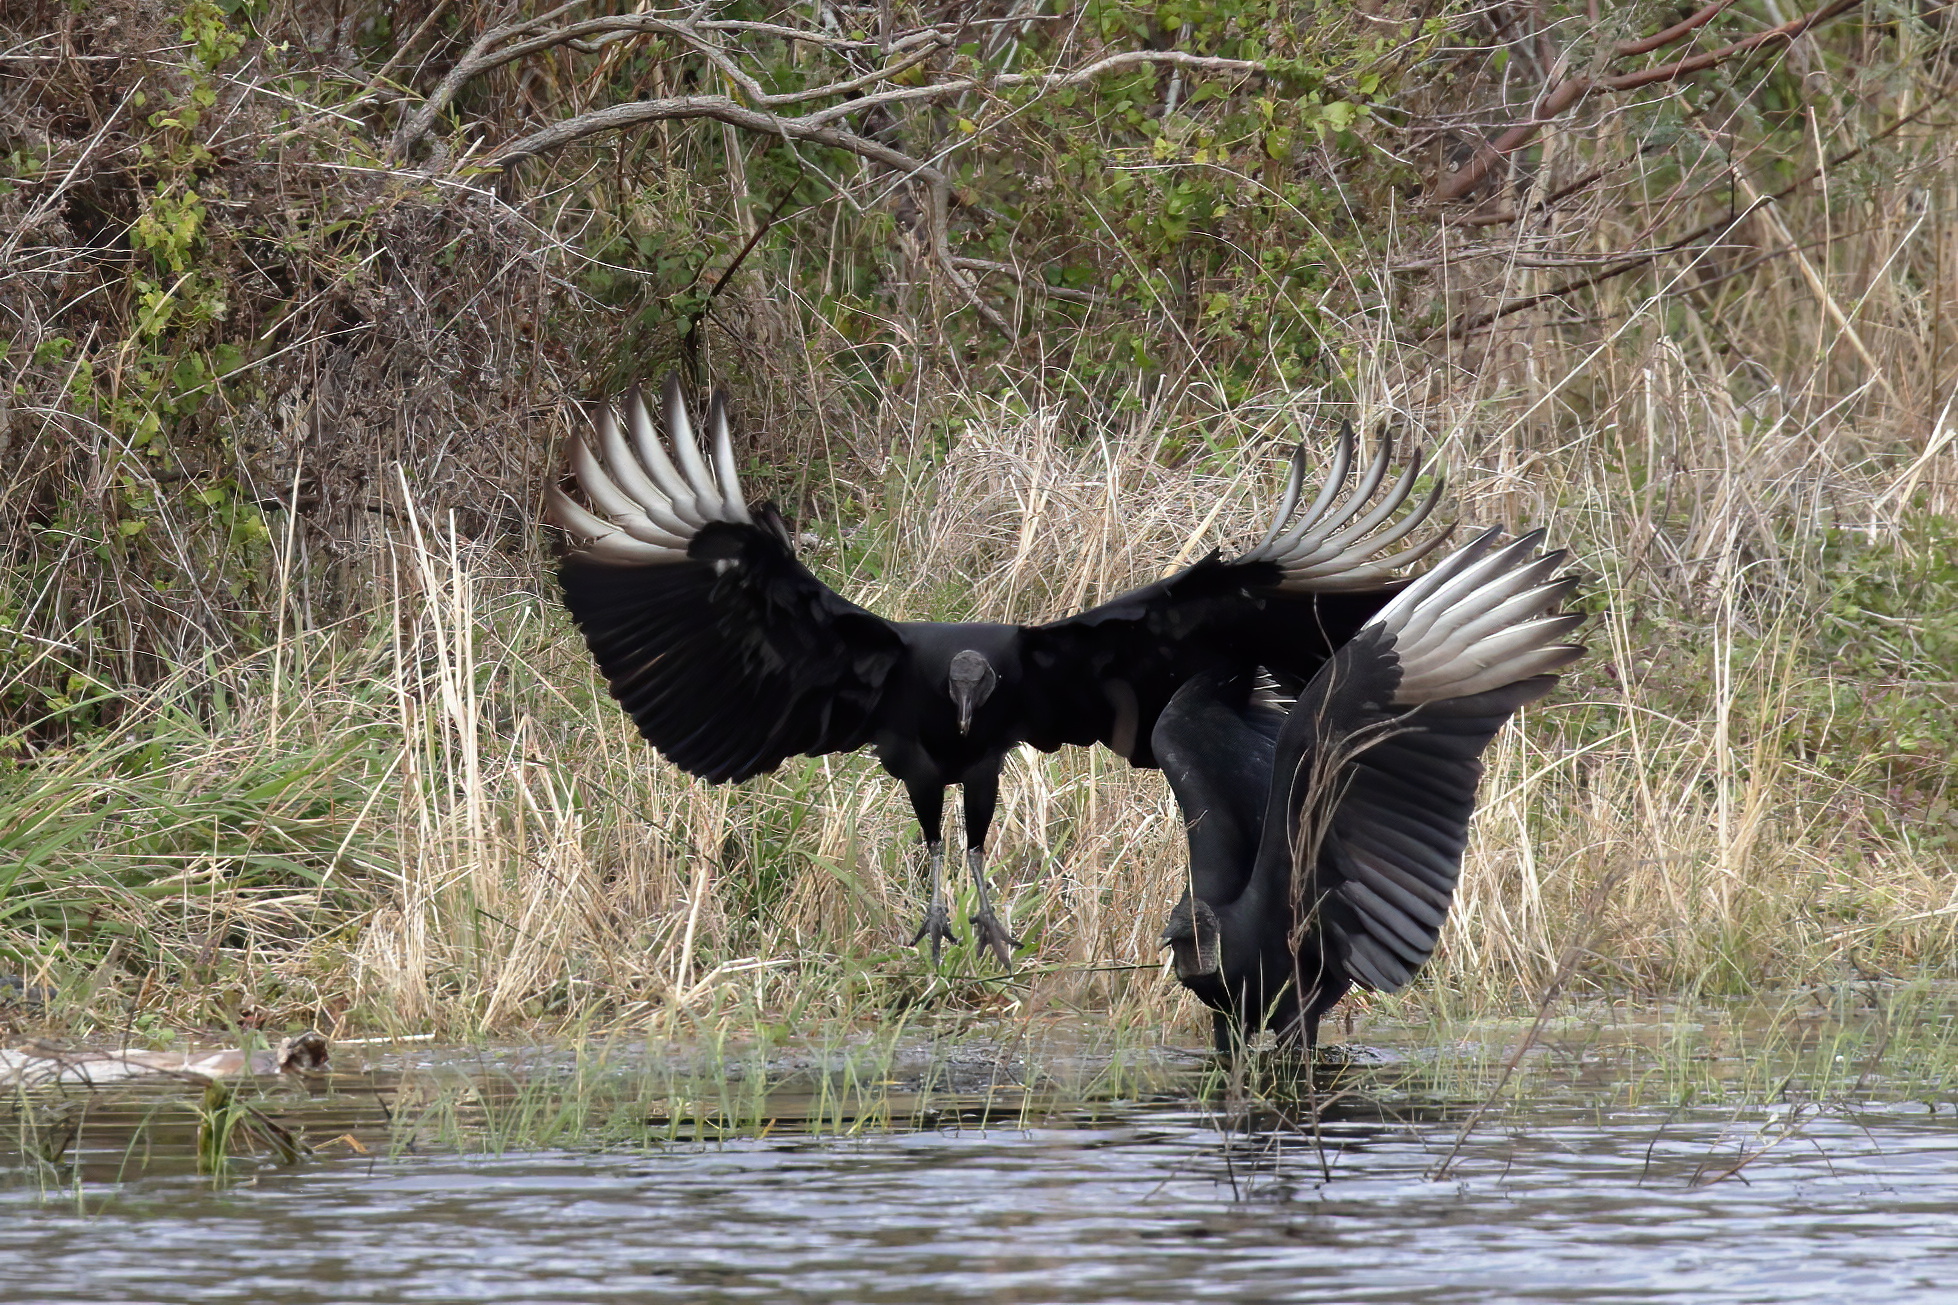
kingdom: Animalia
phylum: Chordata
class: Aves
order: Accipitriformes
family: Cathartidae
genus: Coragyps
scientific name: Coragyps atratus
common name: Black vulture
